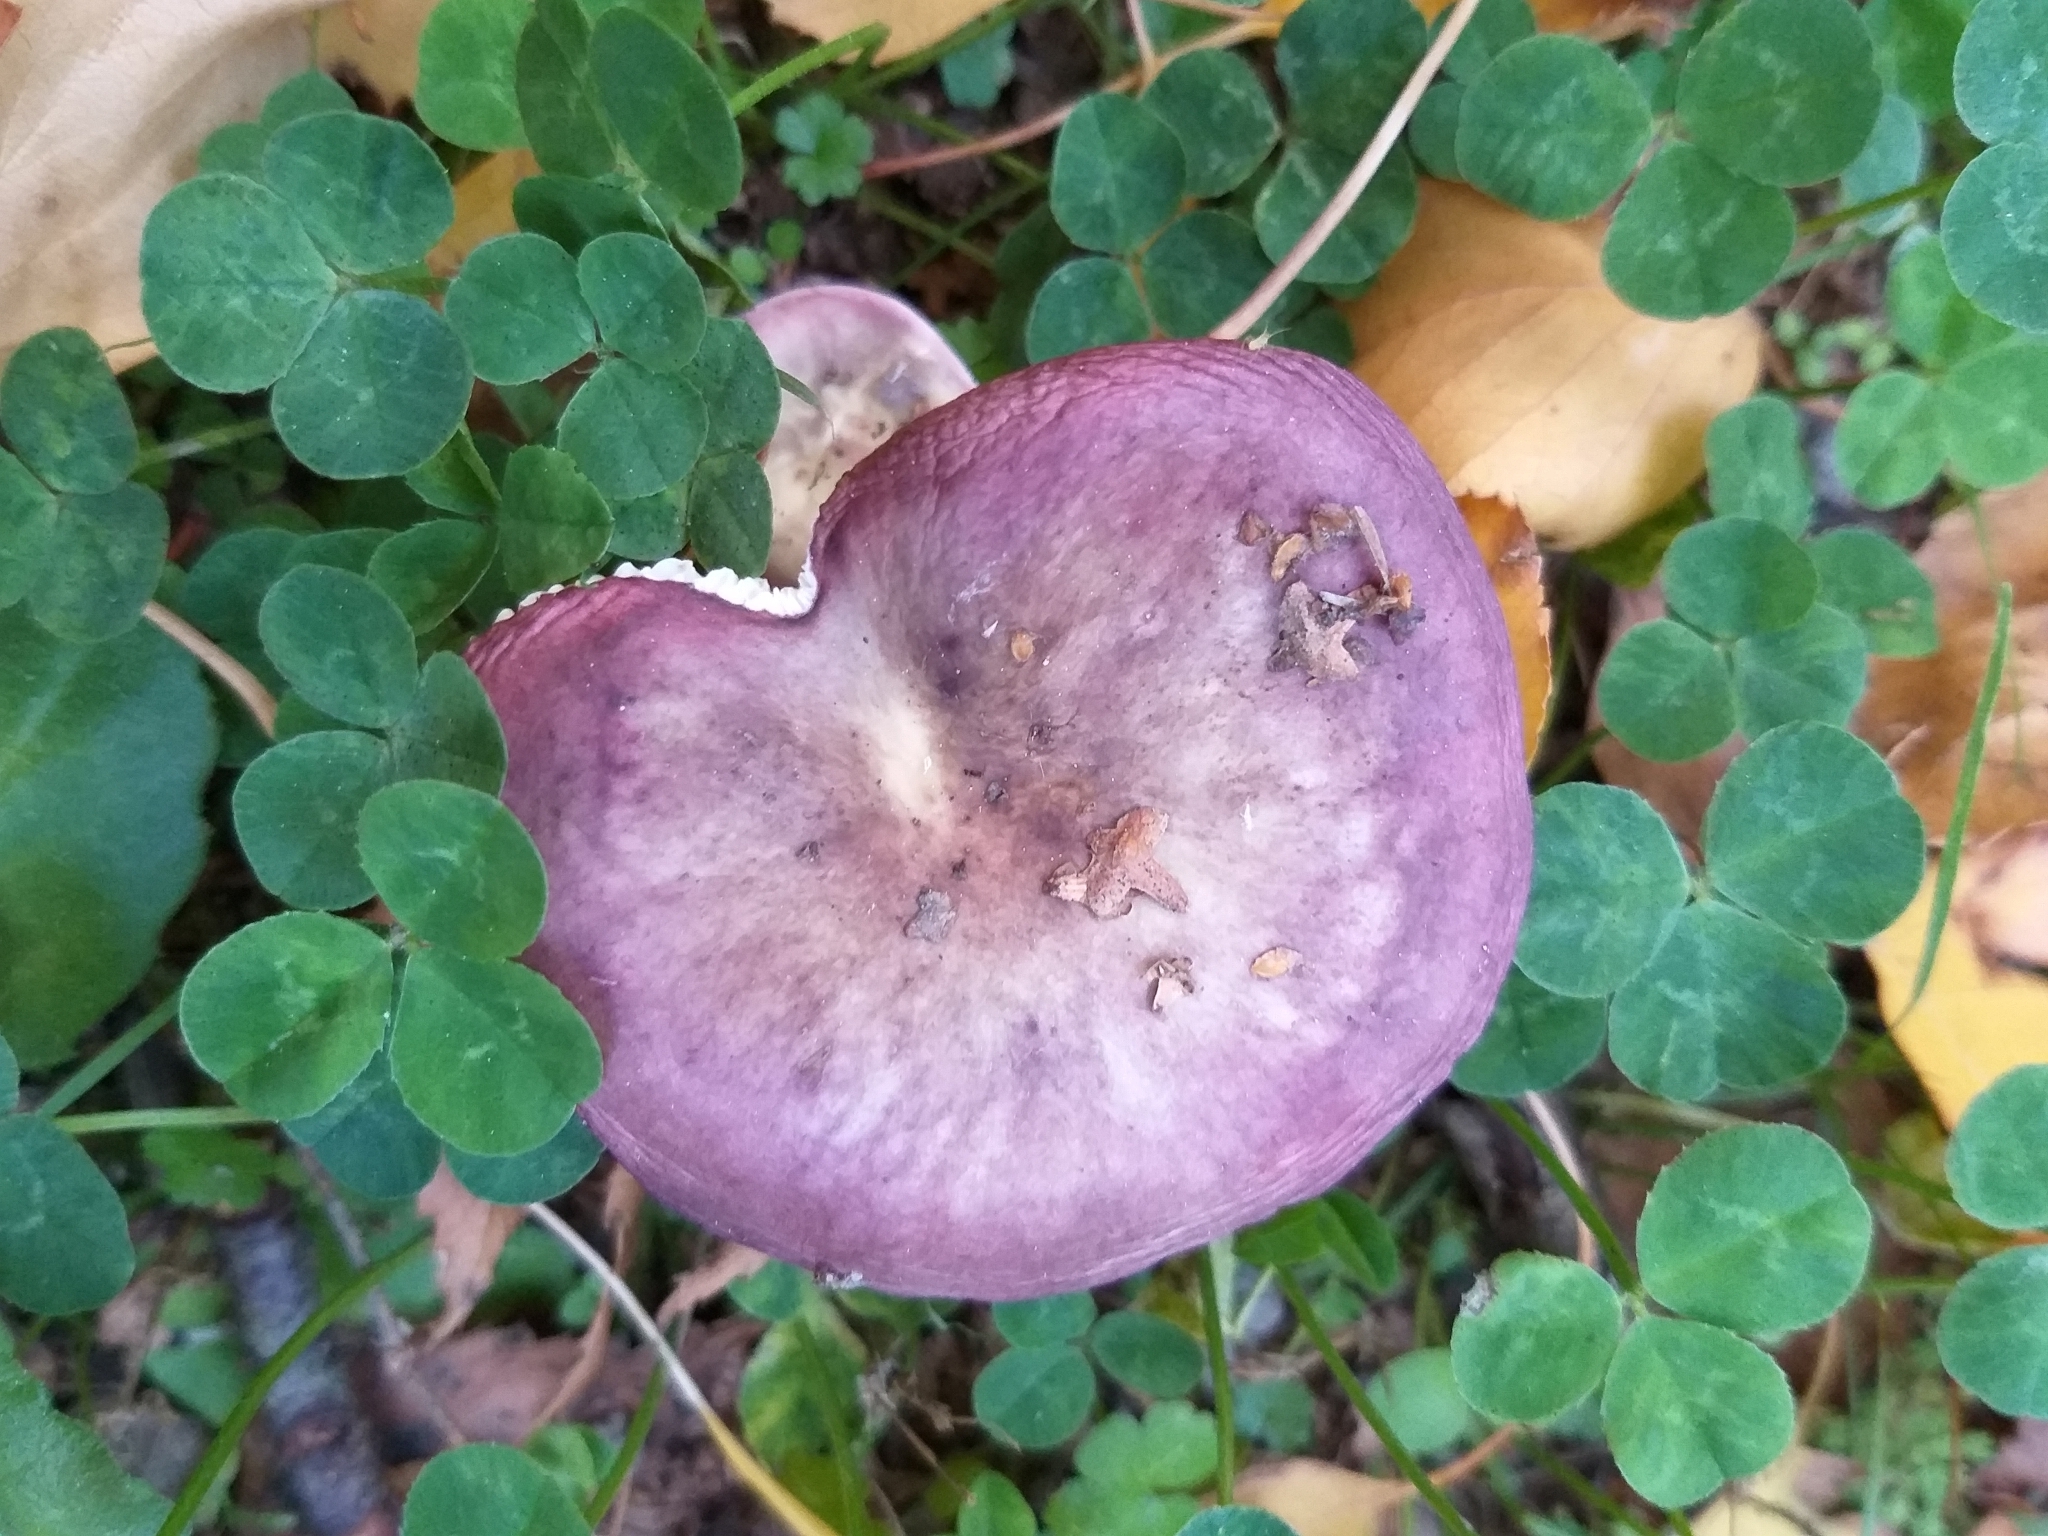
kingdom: Fungi
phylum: Basidiomycota
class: Agaricomycetes
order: Russulales
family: Russulaceae
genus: Russula
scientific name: Russula nitida
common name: Purple swamp brittlegill
